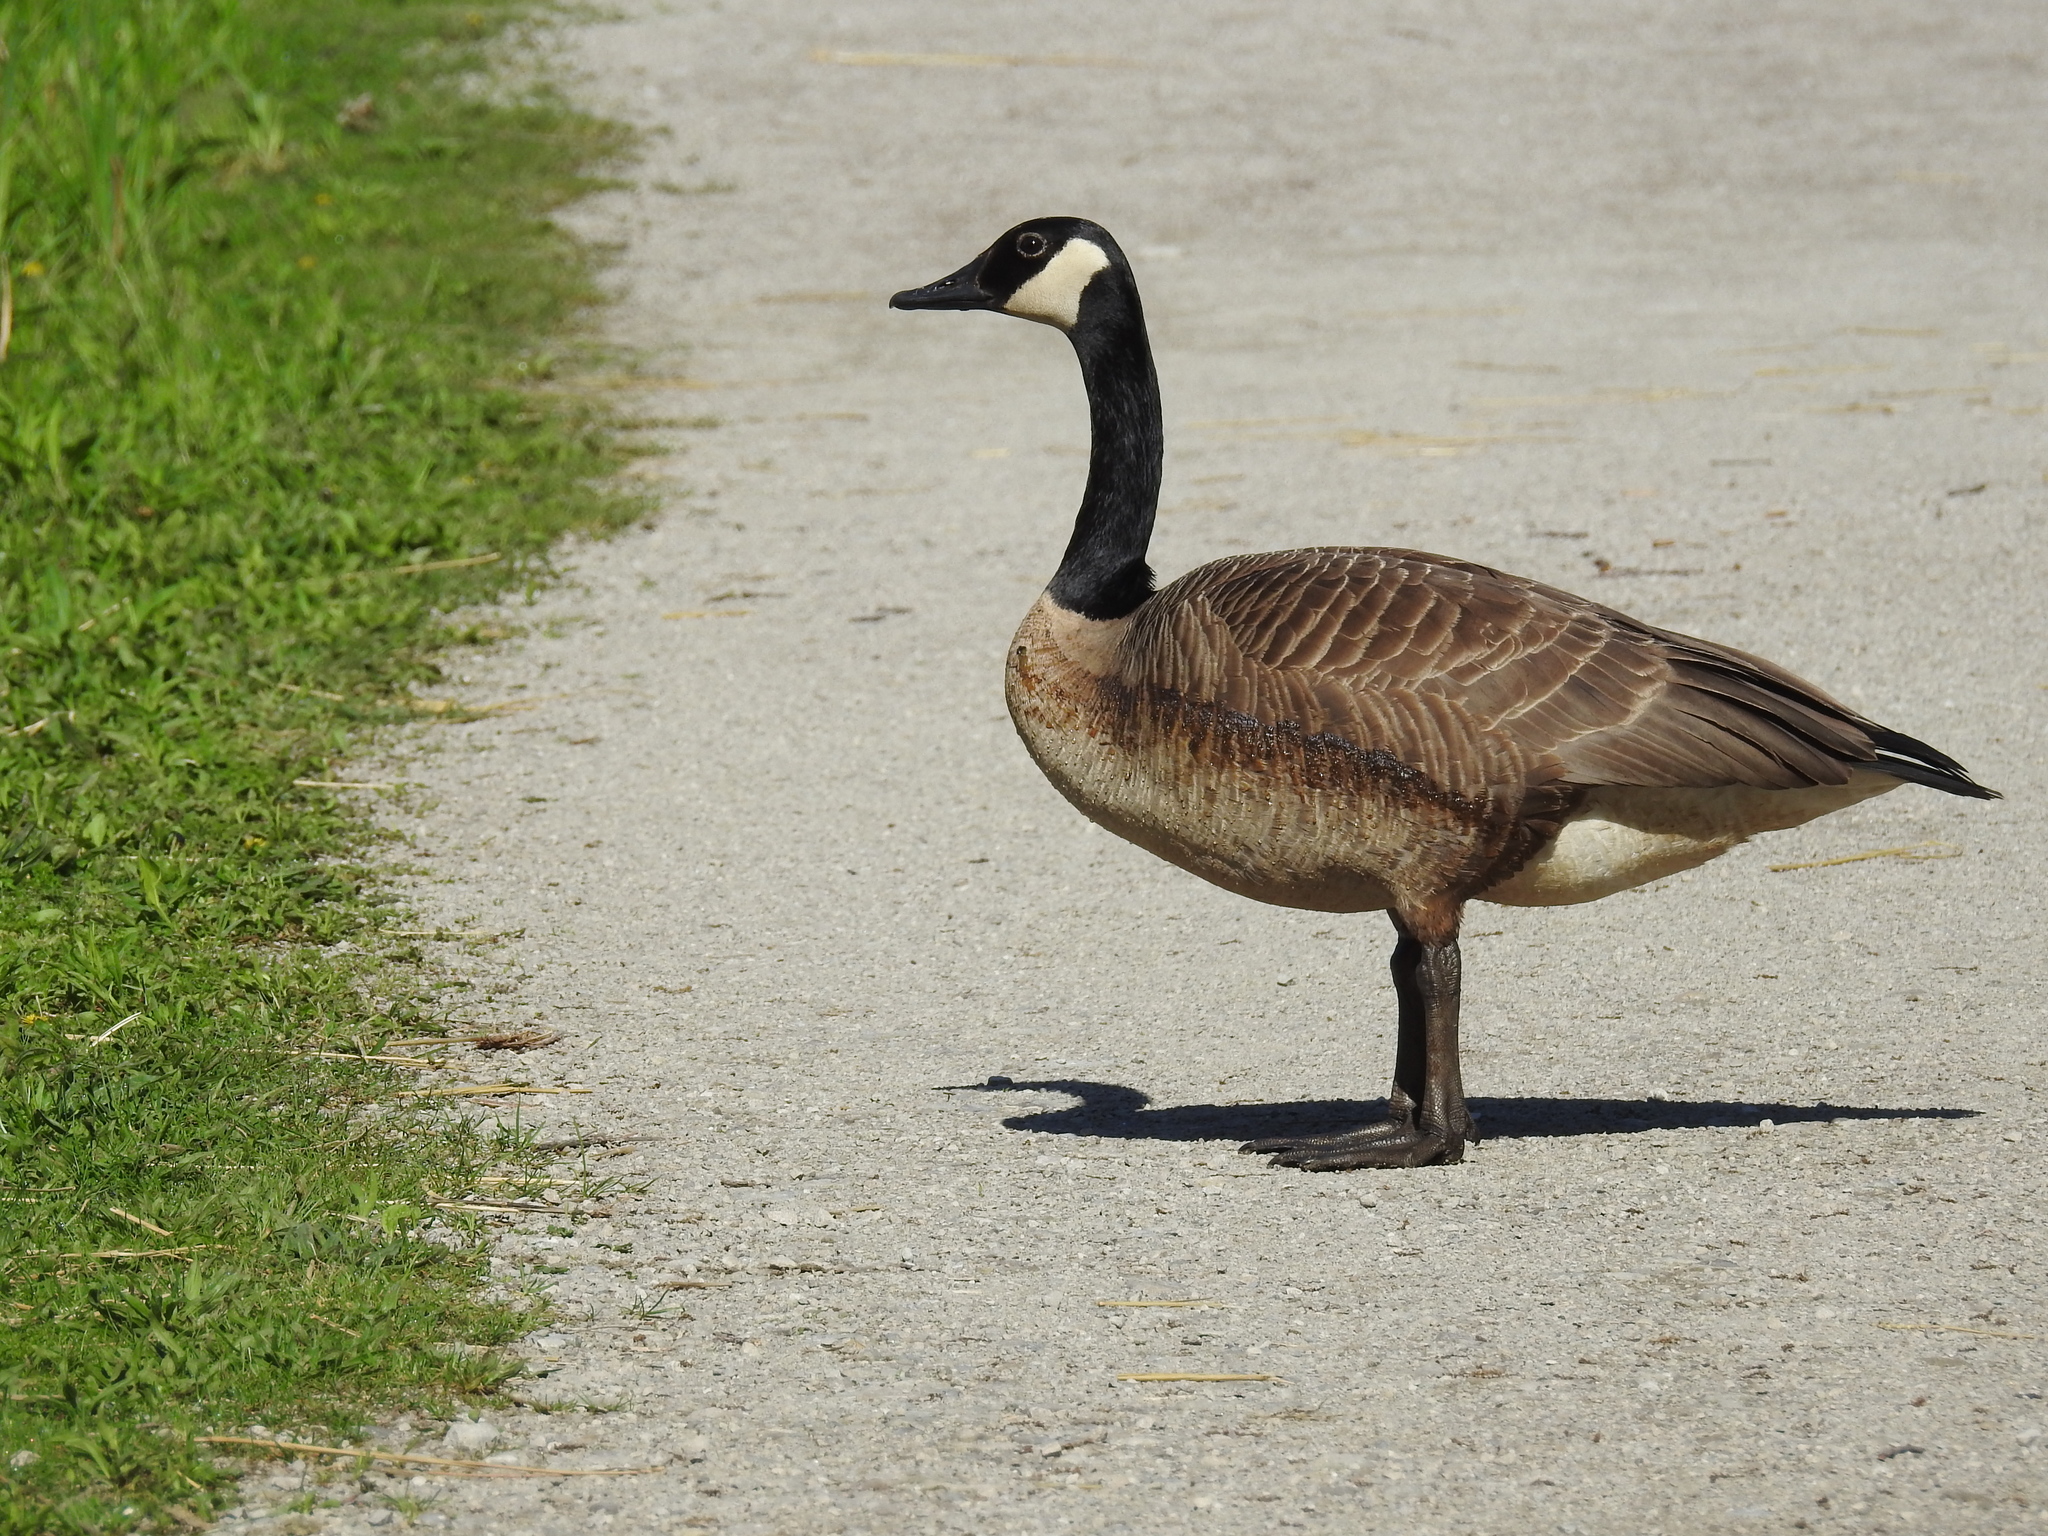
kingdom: Animalia
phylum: Chordata
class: Aves
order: Anseriformes
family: Anatidae
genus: Branta
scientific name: Branta canadensis
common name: Canada goose
